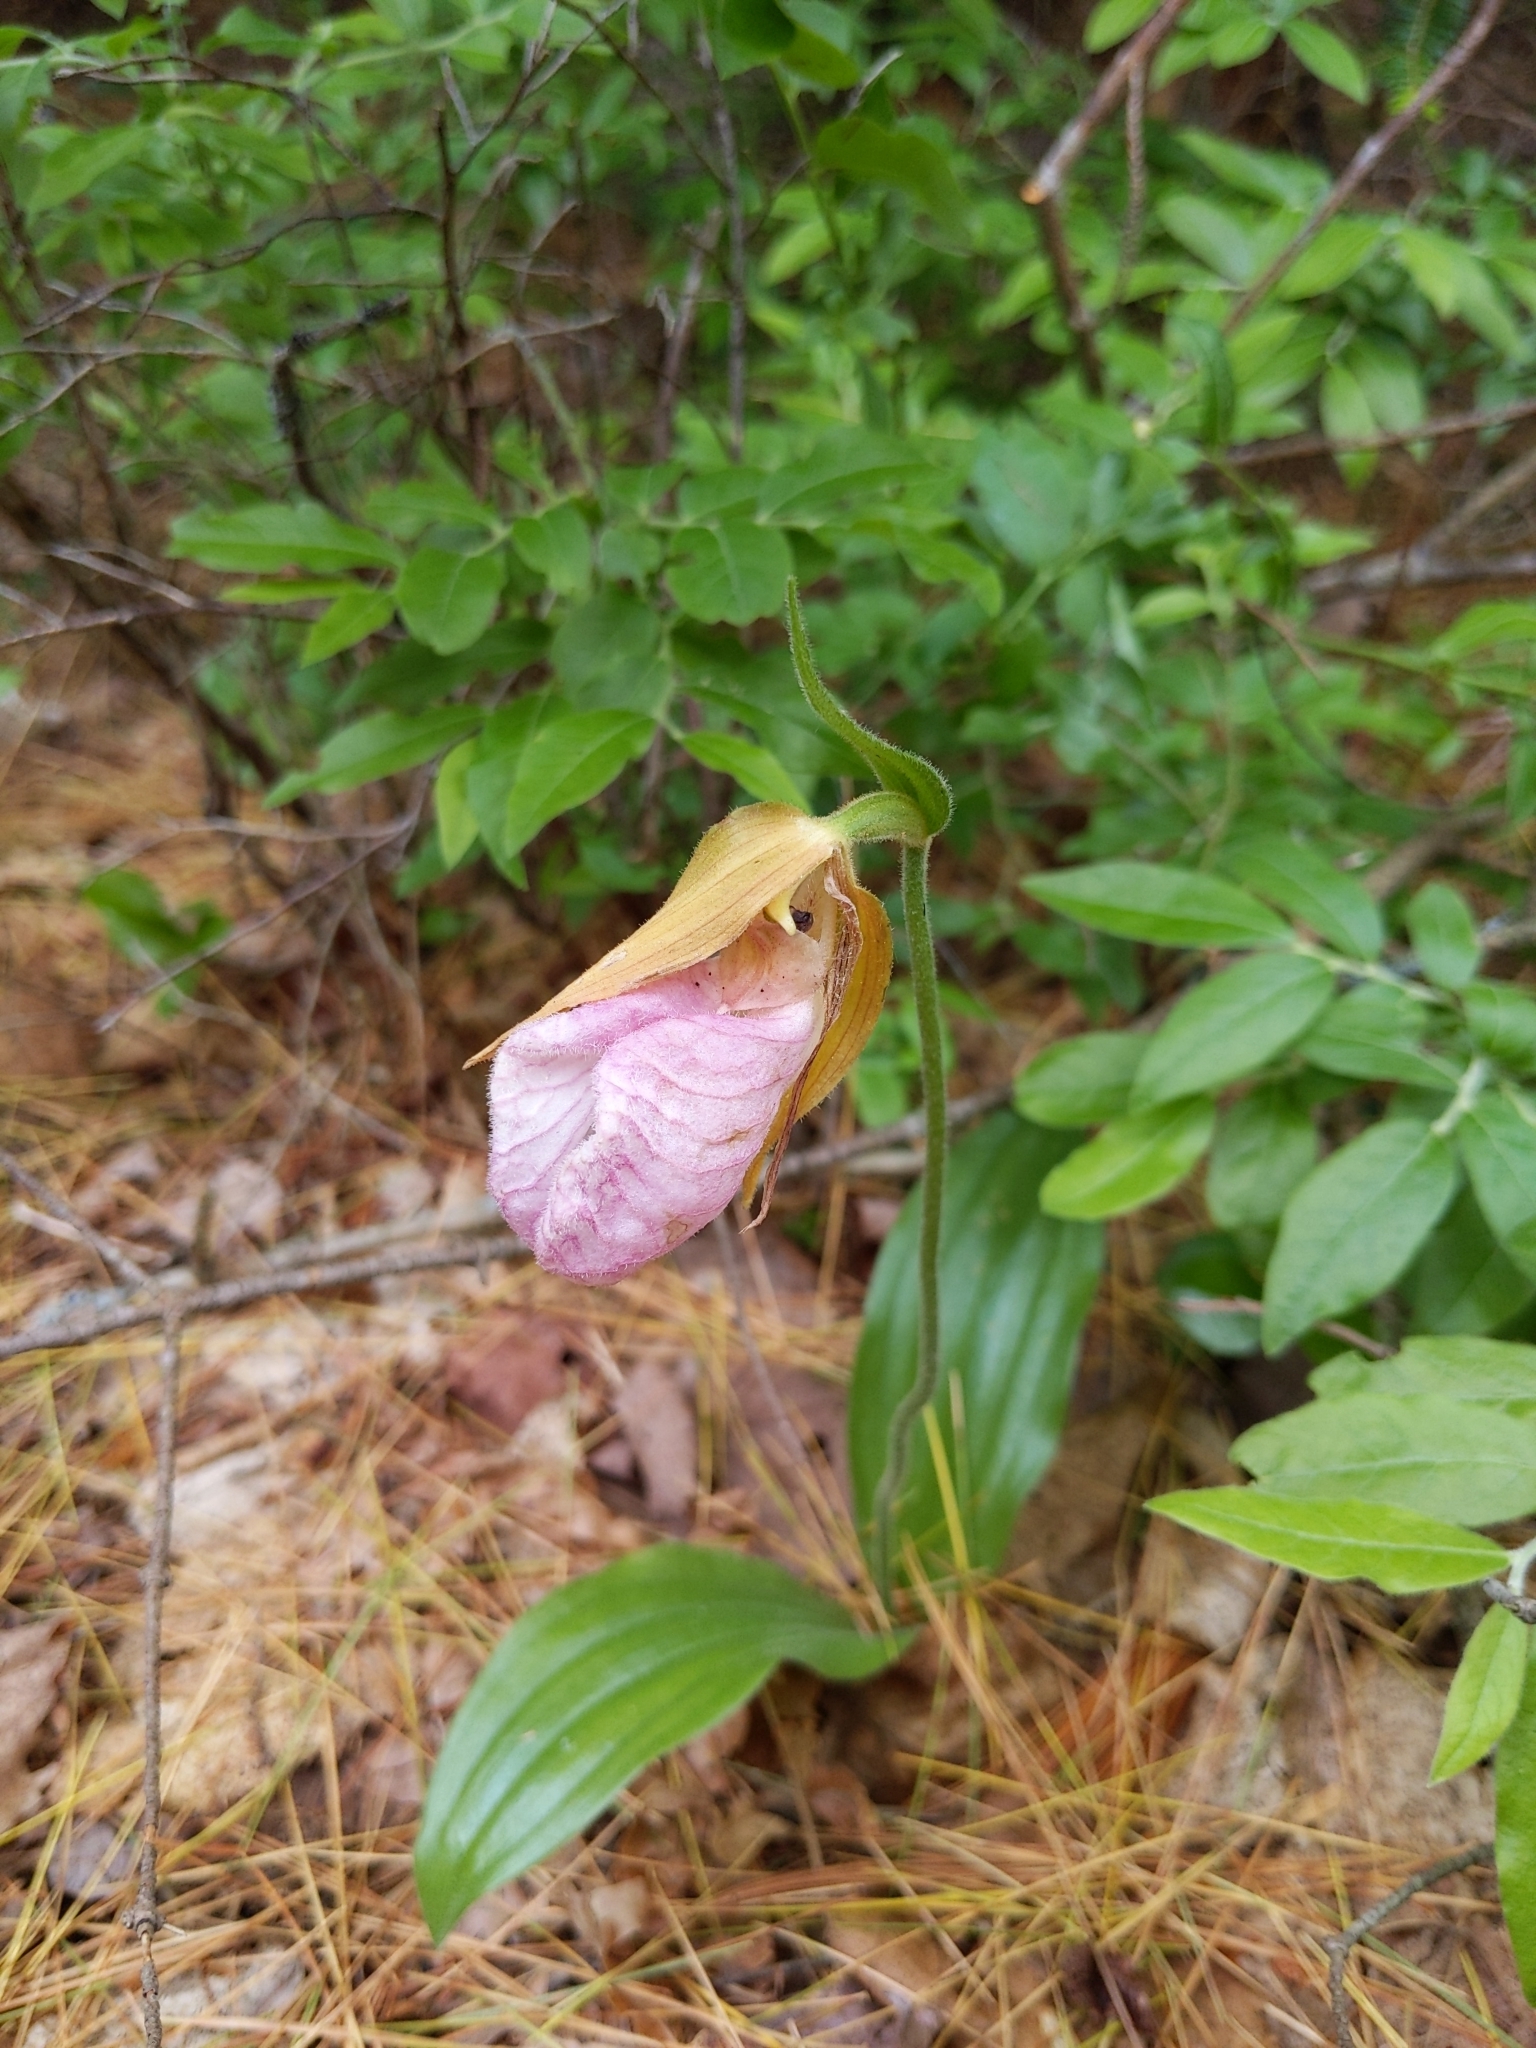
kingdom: Plantae
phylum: Tracheophyta
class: Liliopsida
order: Asparagales
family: Orchidaceae
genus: Cypripedium
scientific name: Cypripedium acaule
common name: Pink lady's-slipper
